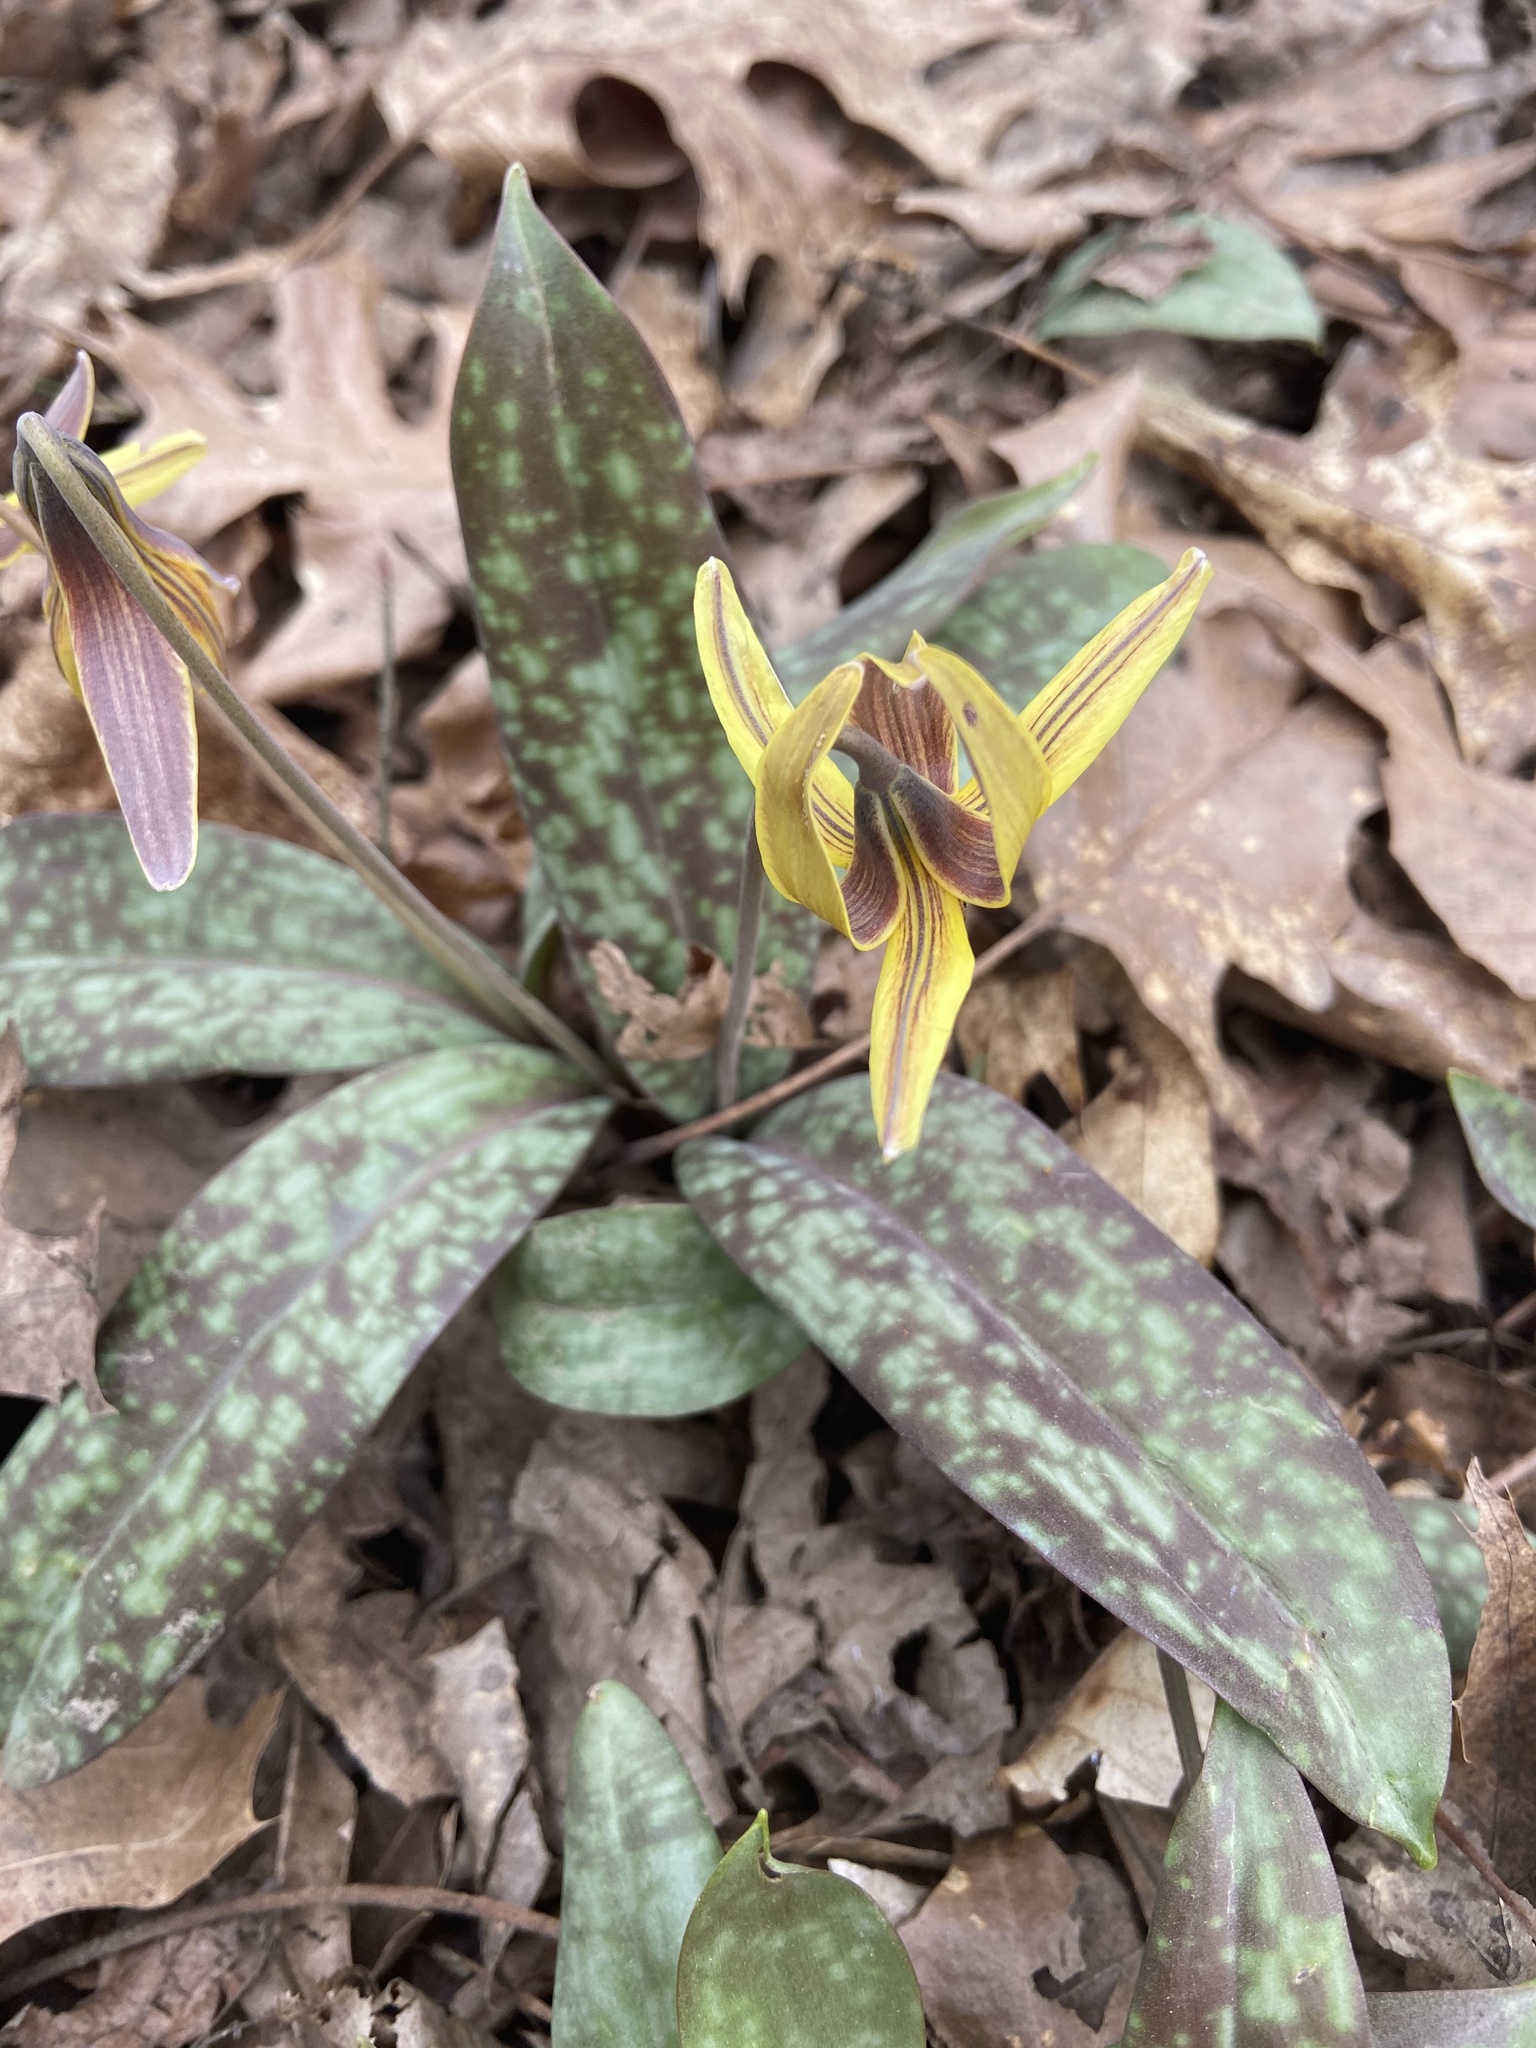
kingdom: Plantae
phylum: Tracheophyta
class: Liliopsida
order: Liliales
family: Liliaceae
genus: Erythronium
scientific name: Erythronium umbilicatum
